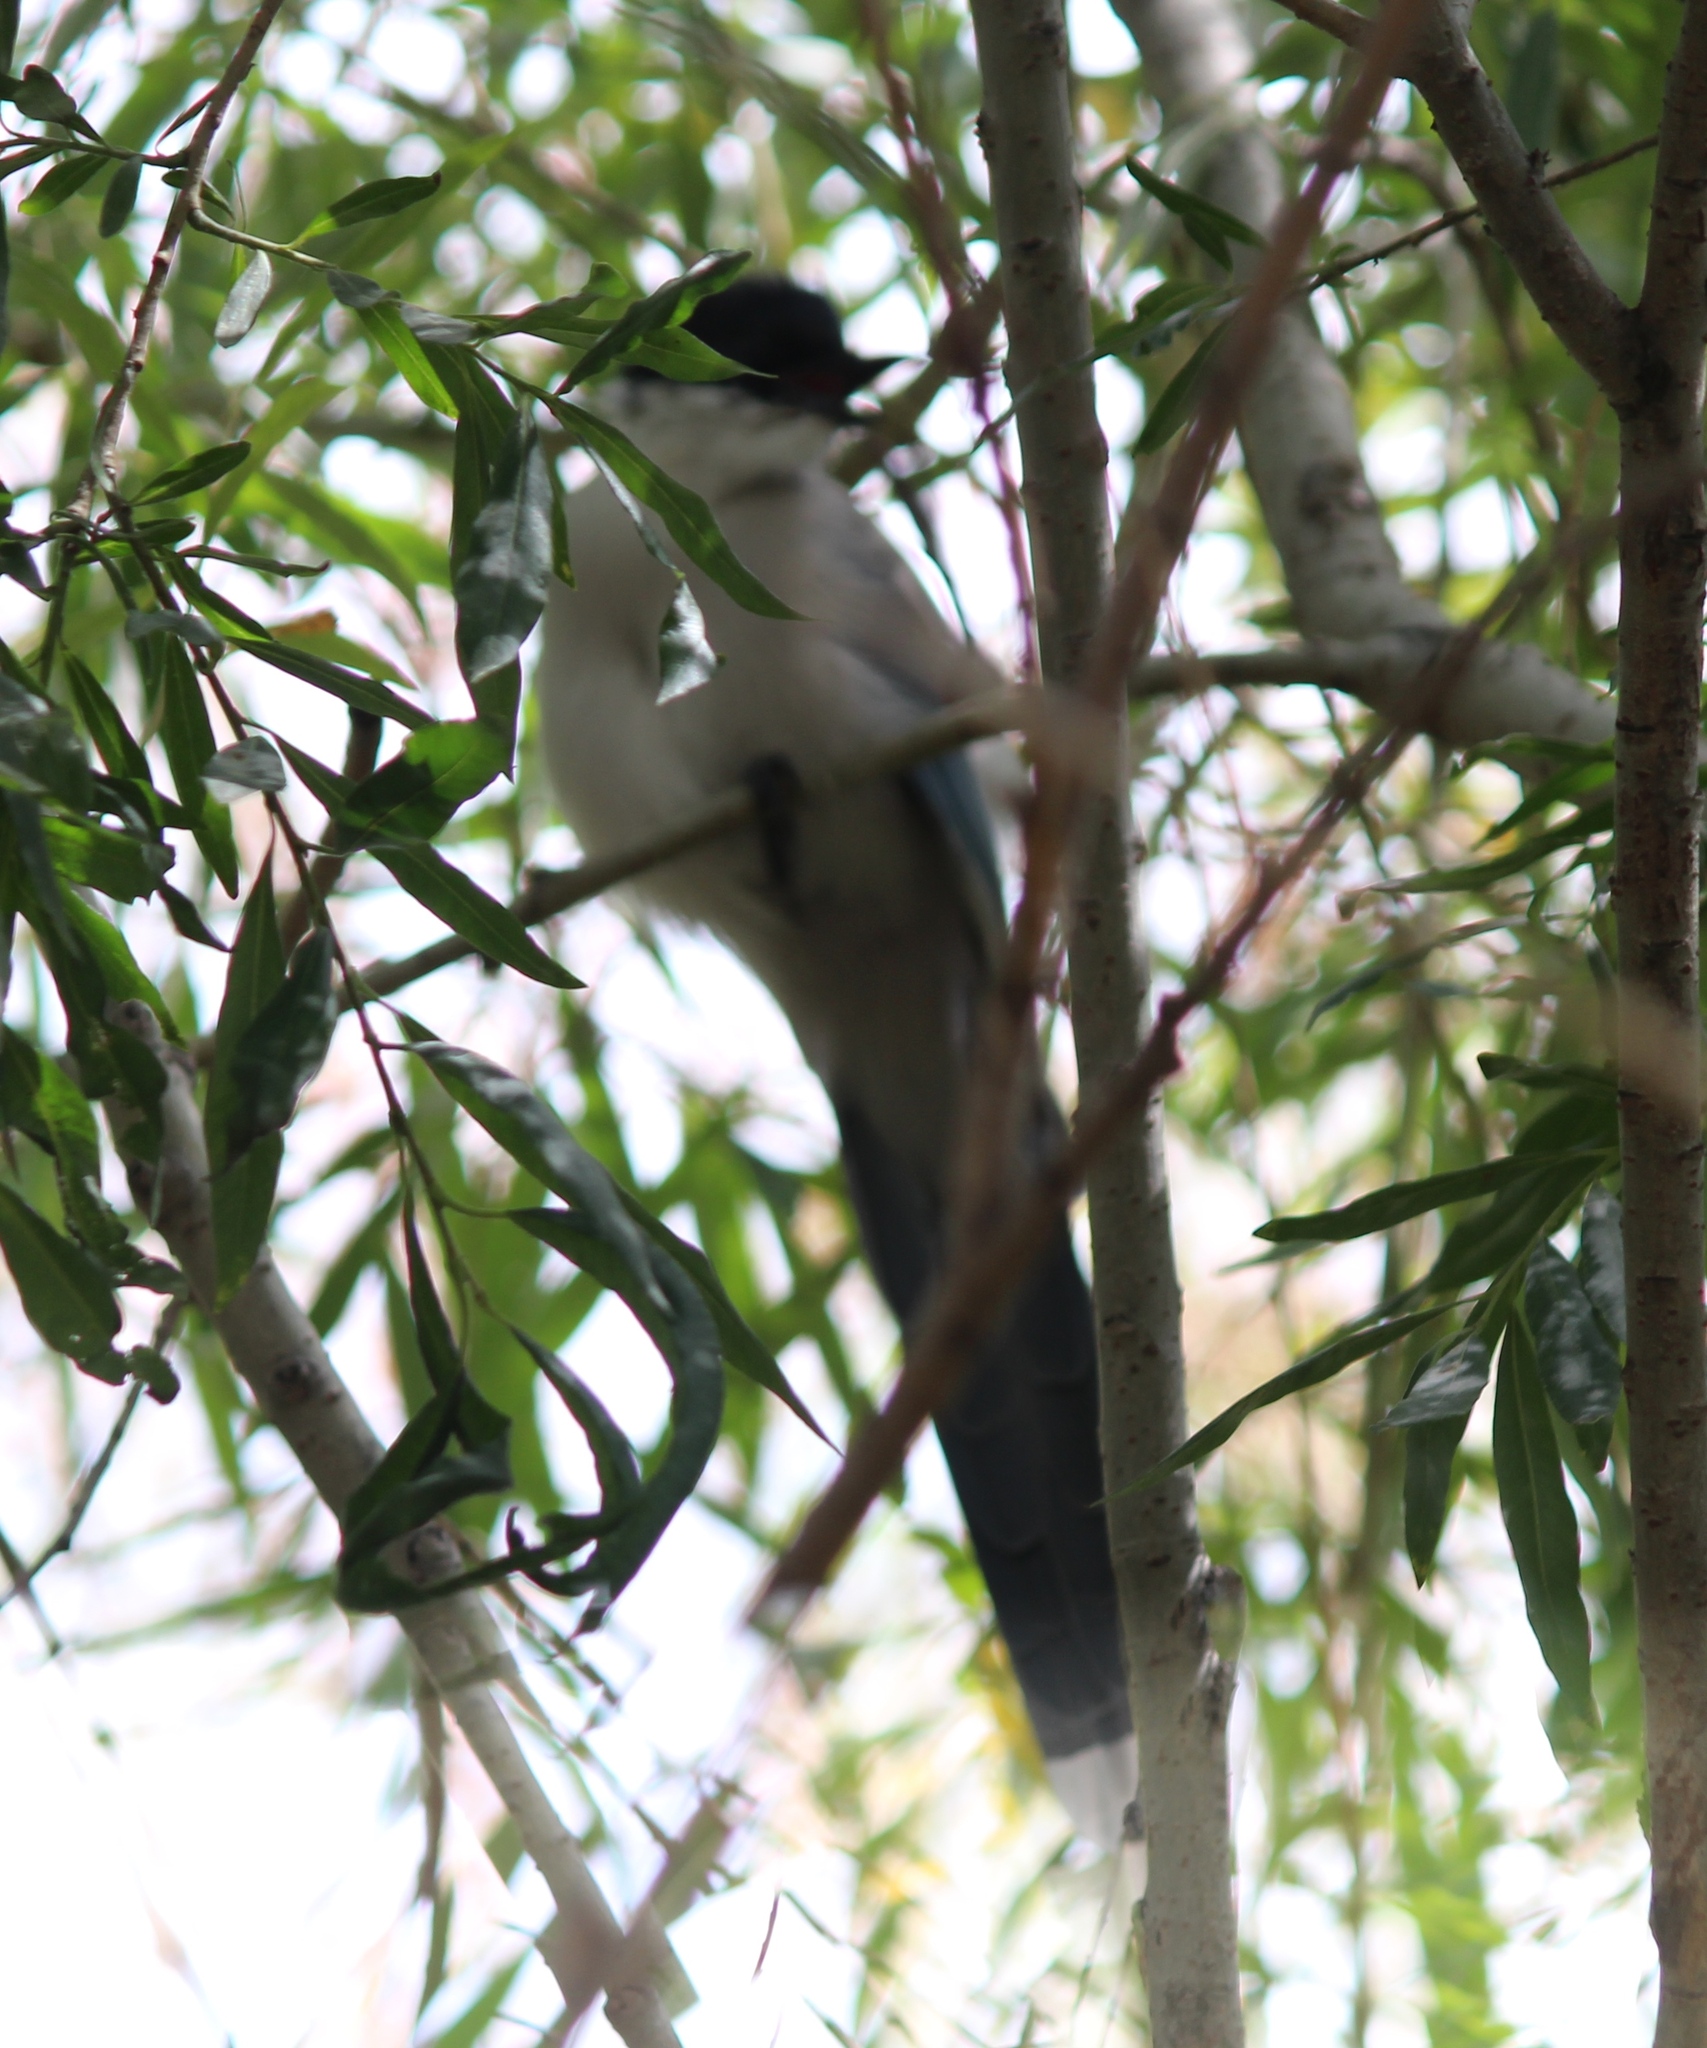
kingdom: Animalia
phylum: Chordata
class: Aves
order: Passeriformes
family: Corvidae
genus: Cyanopica
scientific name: Cyanopica cyanus
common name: Azure-winged magpie
